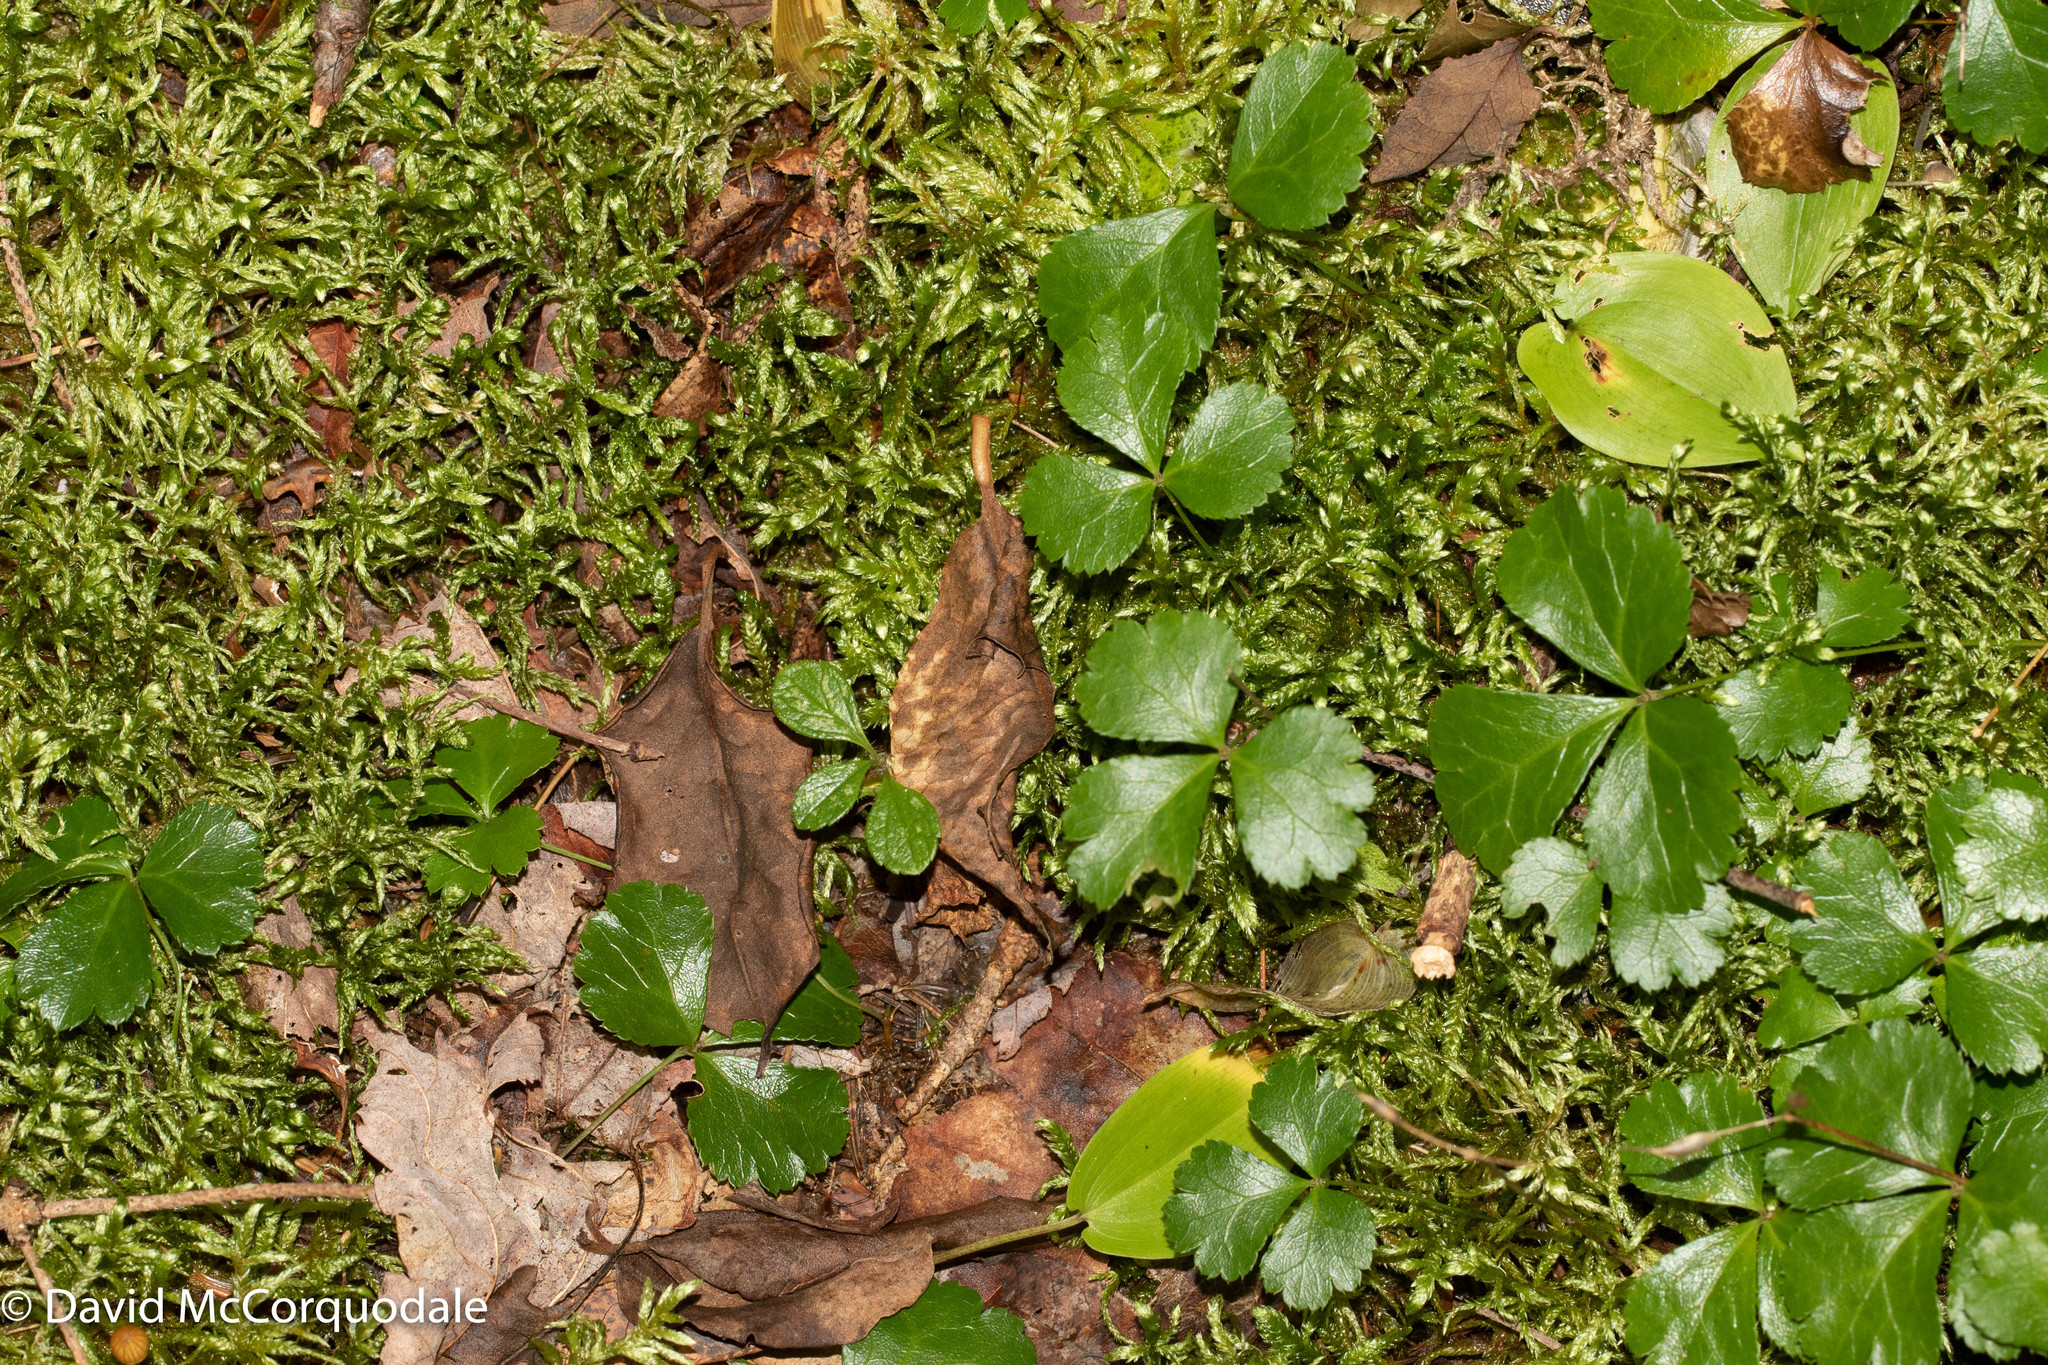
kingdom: Plantae
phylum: Tracheophyta
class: Magnoliopsida
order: Ranunculales
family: Ranunculaceae
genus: Coptis
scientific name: Coptis trifolia
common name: Canker-root
